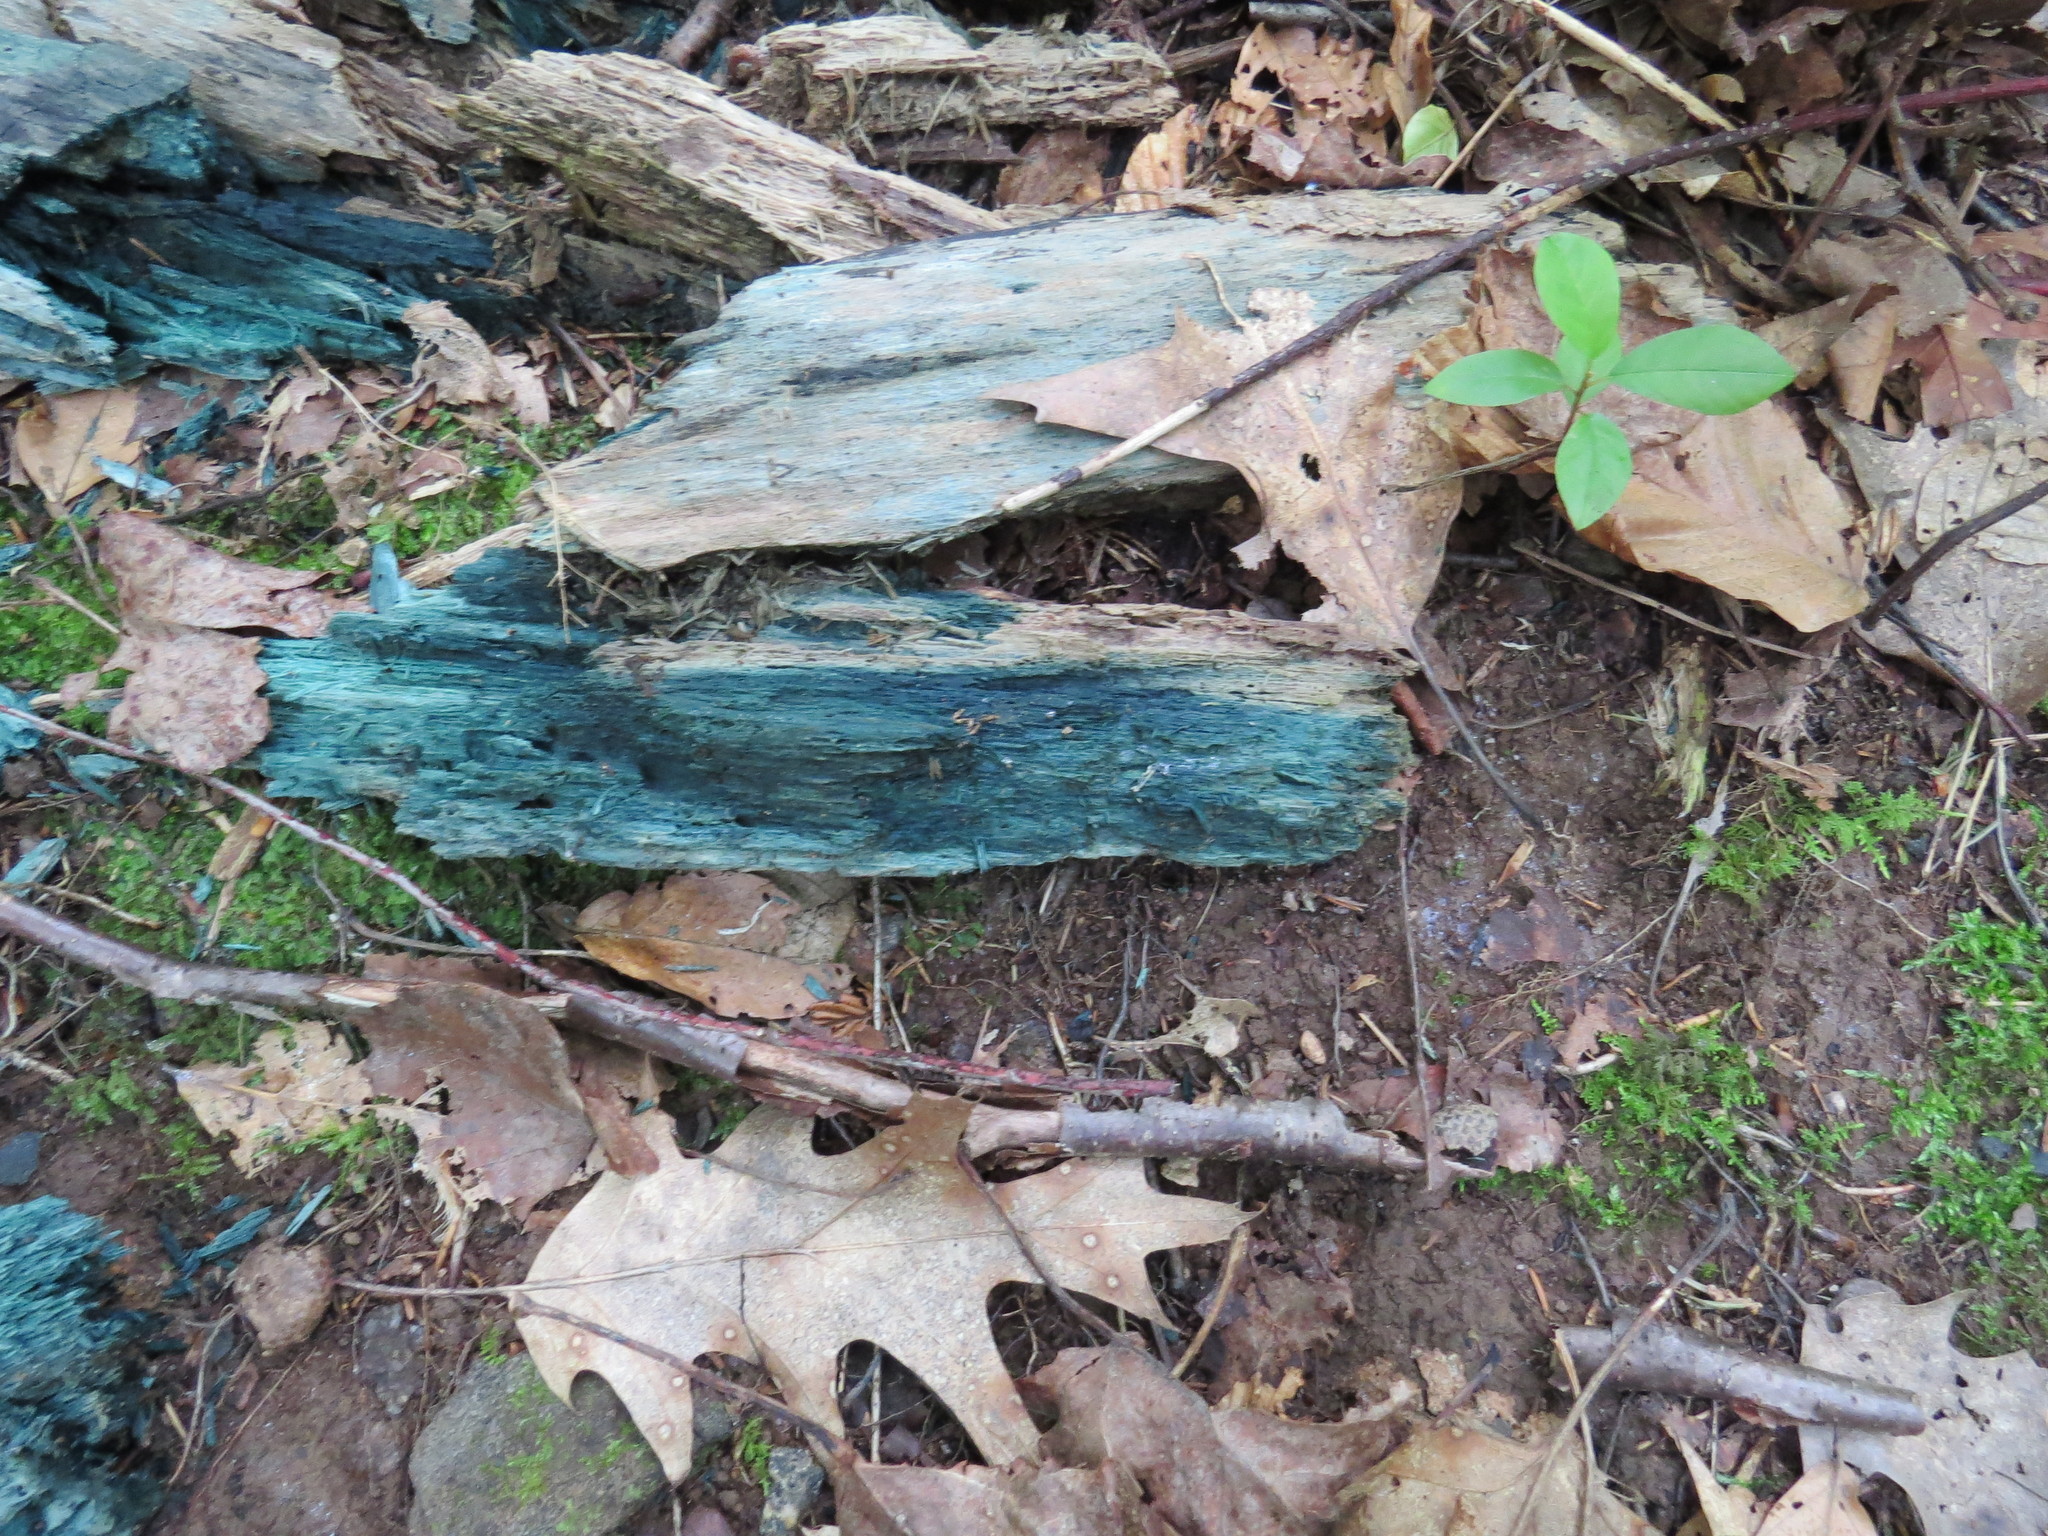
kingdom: Fungi
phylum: Ascomycota
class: Leotiomycetes
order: Helotiales
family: Chlorociboriaceae
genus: Chlorociboria
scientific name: Chlorociboria
